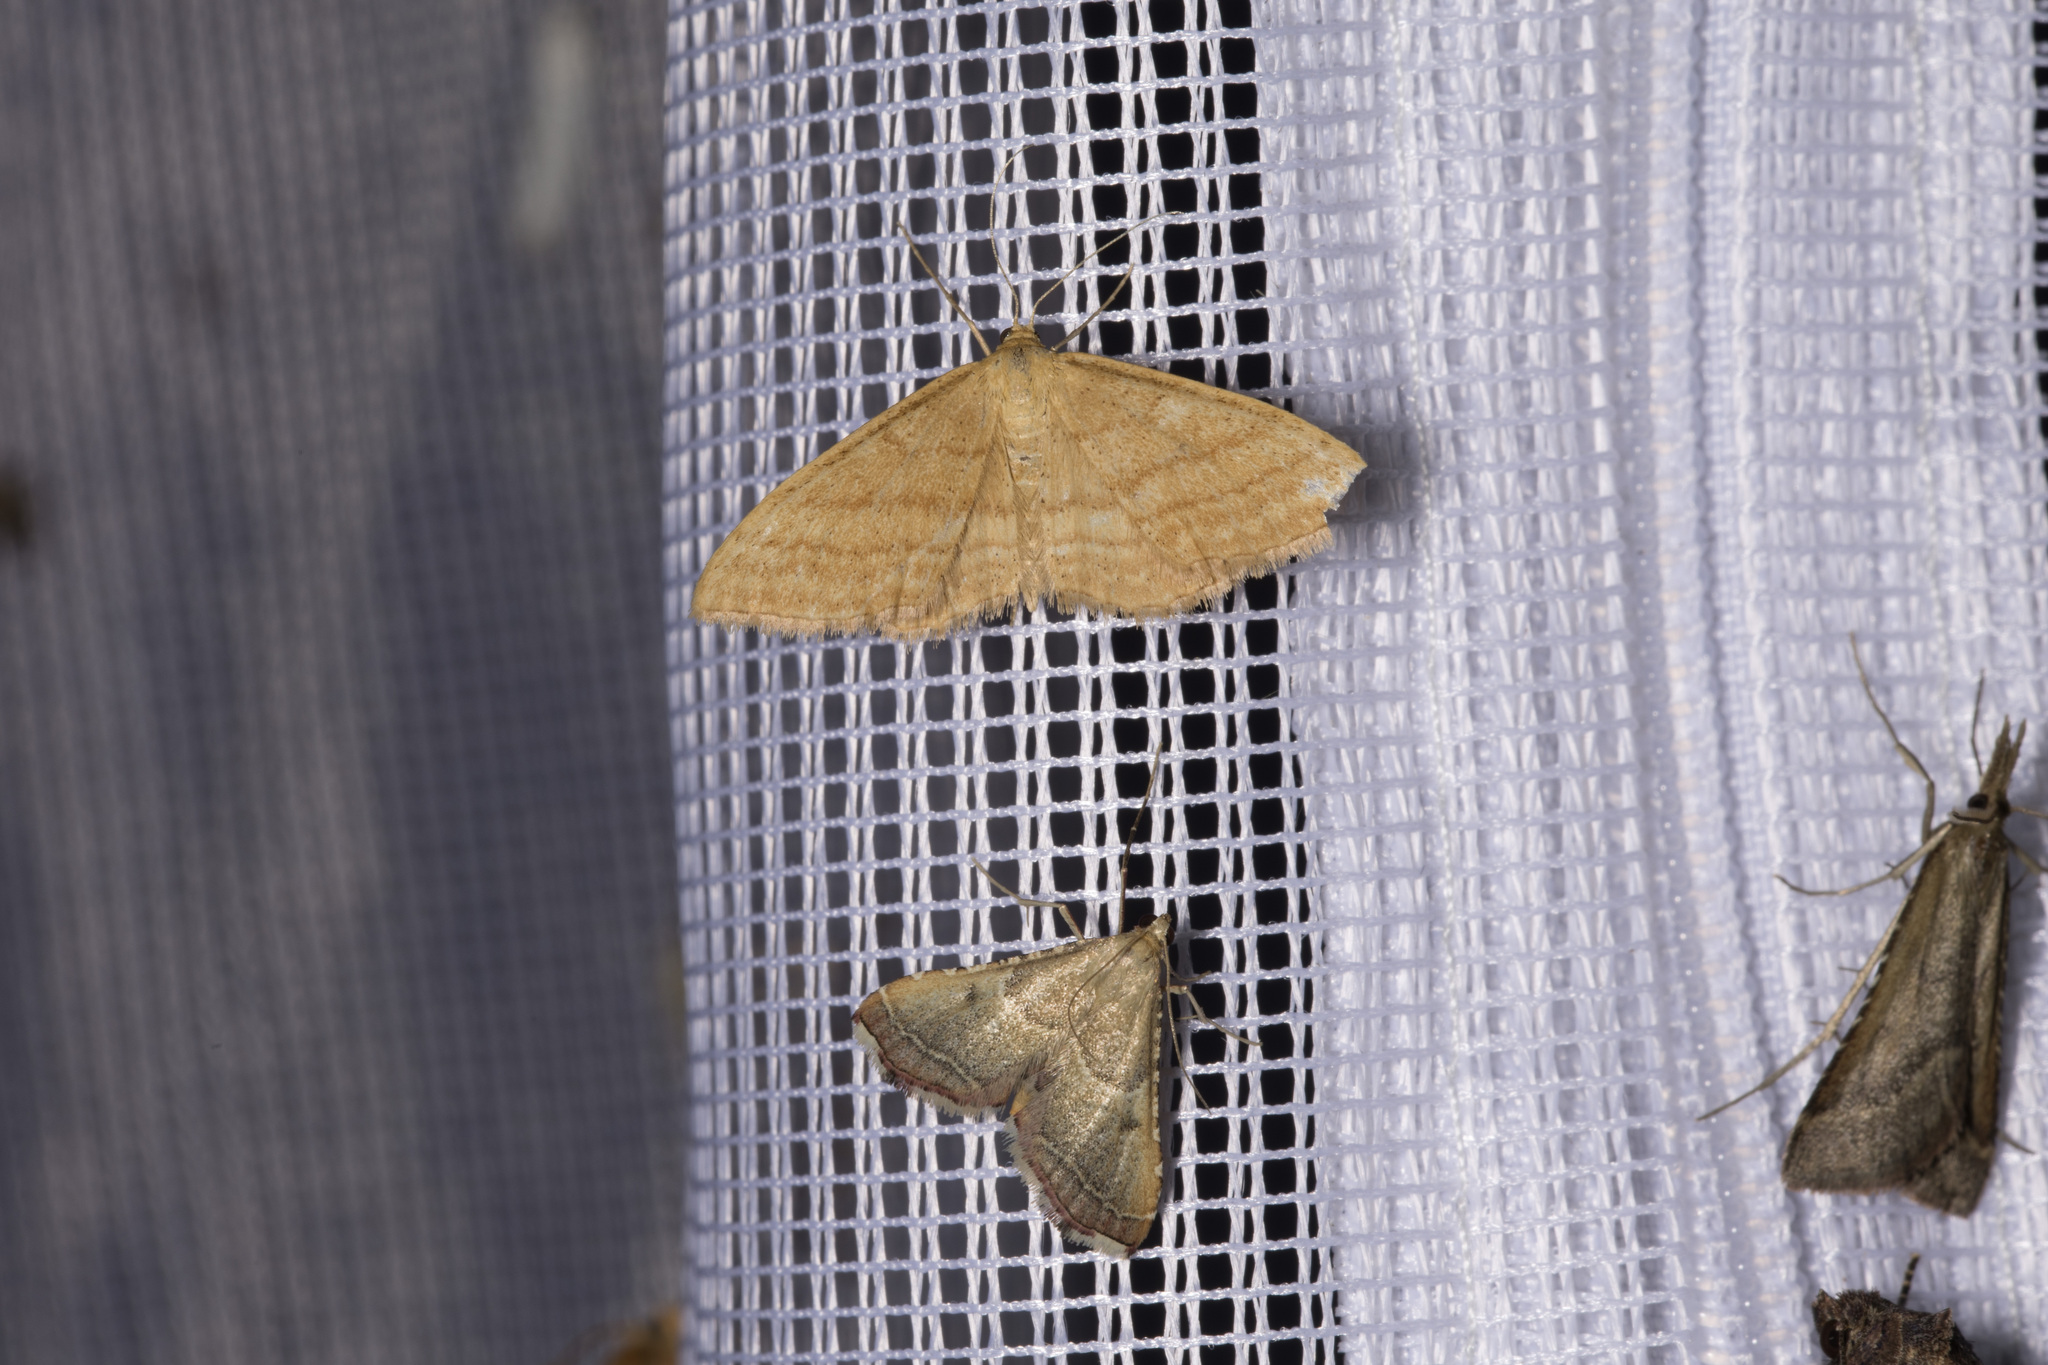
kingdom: Animalia
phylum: Arthropoda
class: Insecta
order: Lepidoptera
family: Geometridae
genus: Idaea
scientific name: Idaea ochrata
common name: Bright wave
